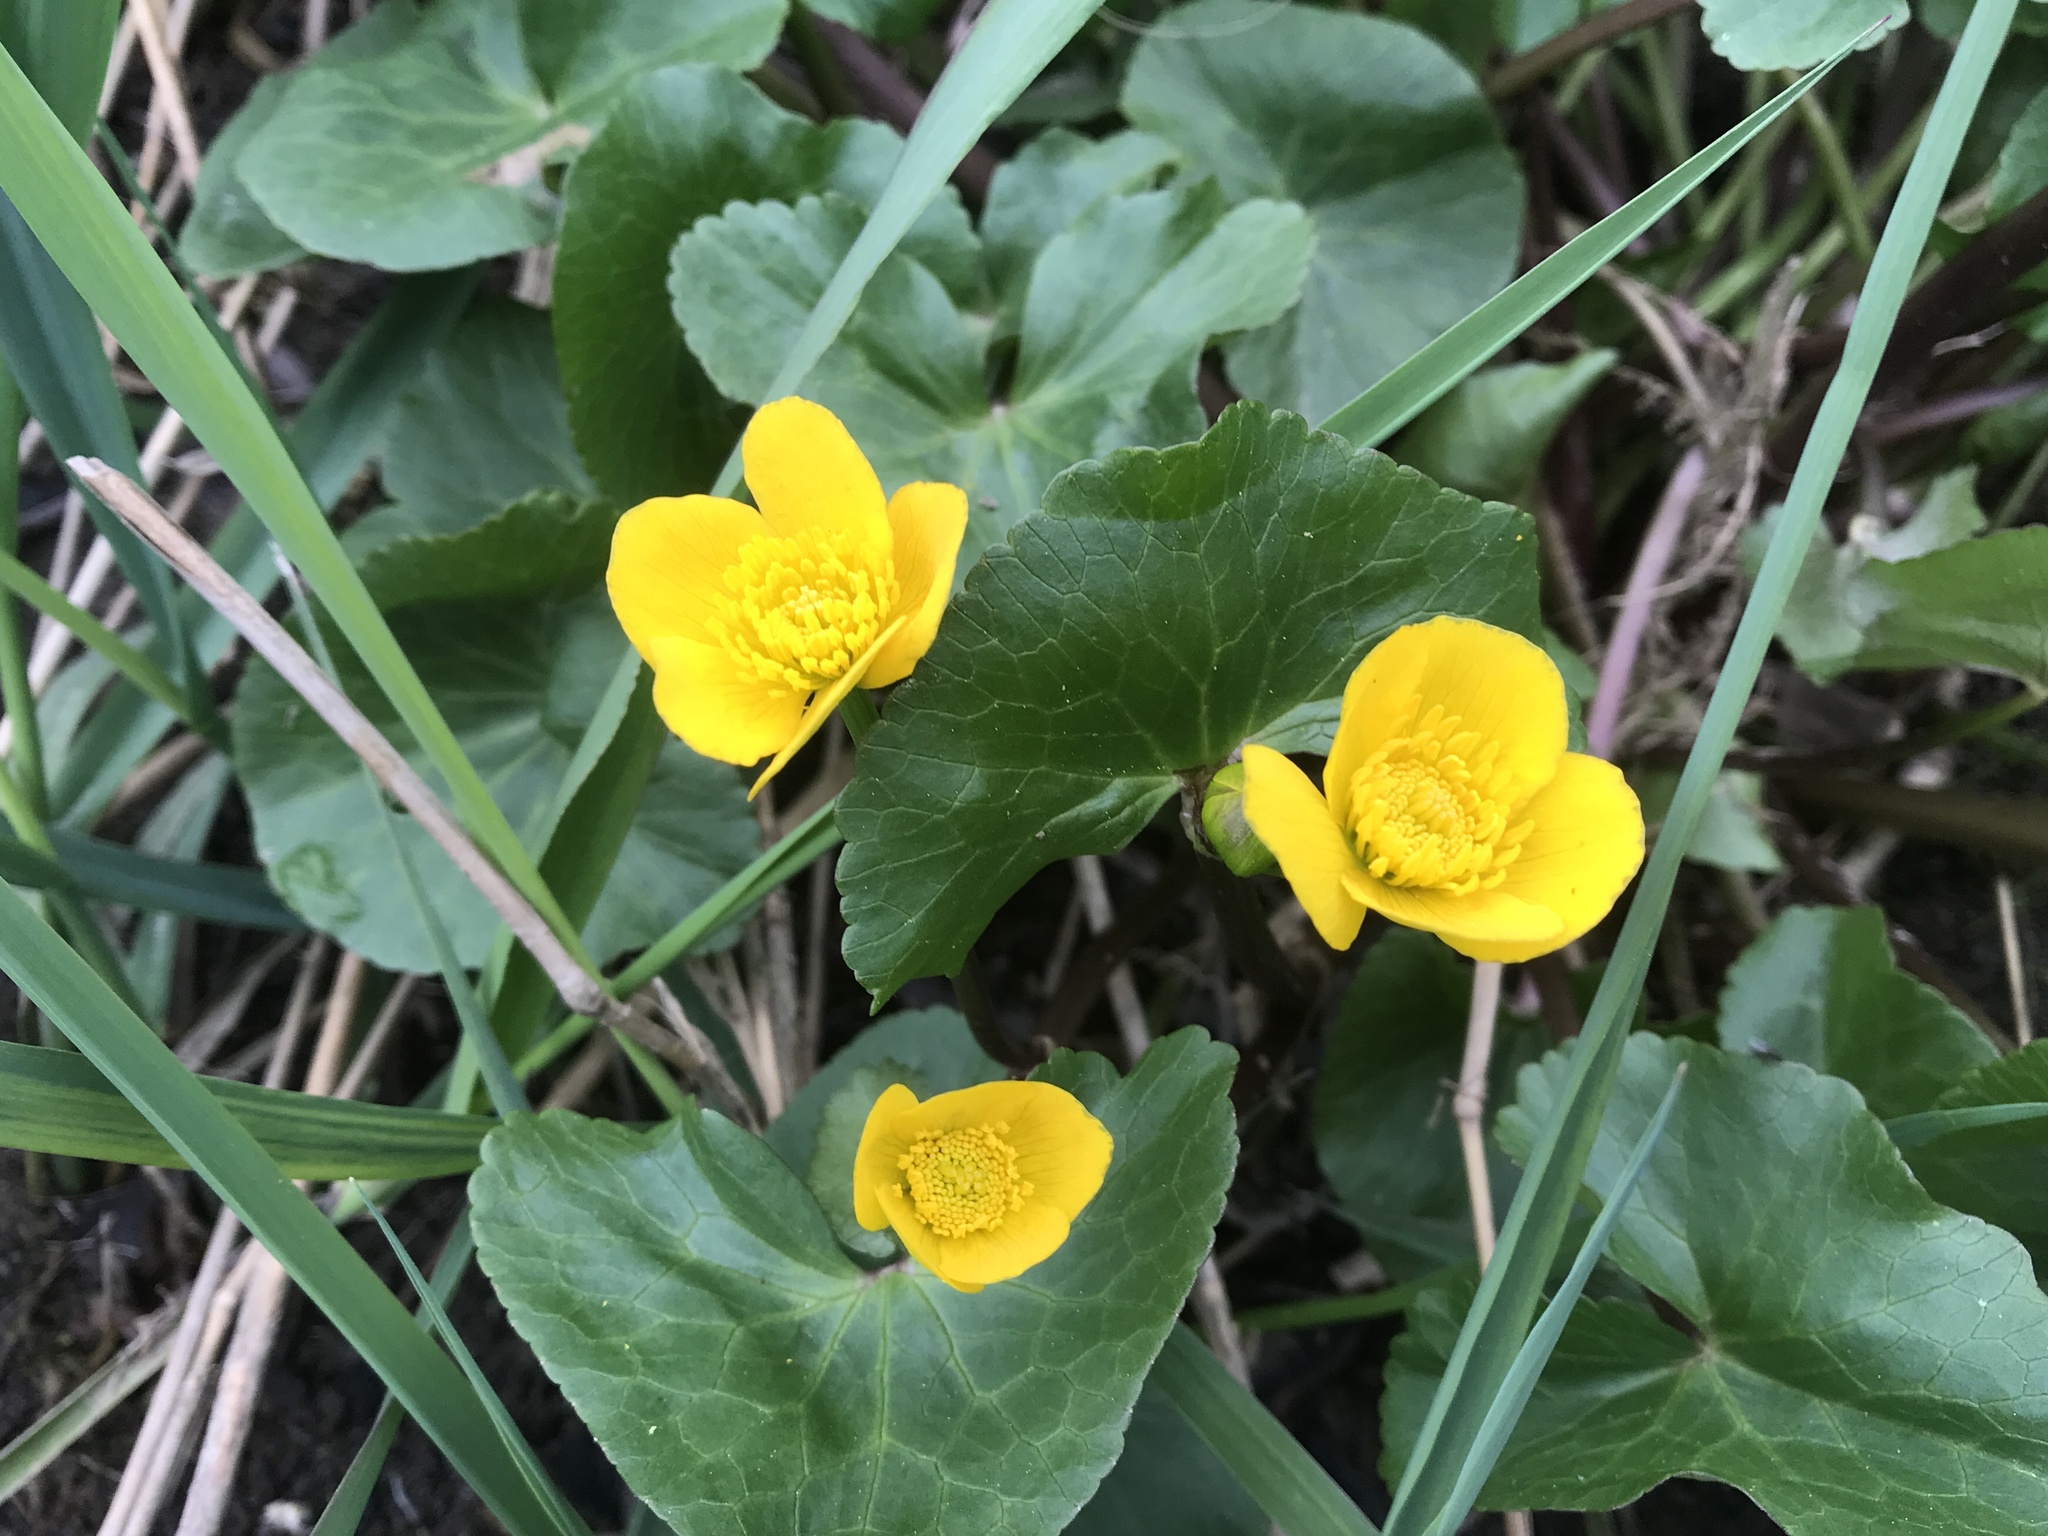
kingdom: Plantae
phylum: Tracheophyta
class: Magnoliopsida
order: Ranunculales
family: Ranunculaceae
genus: Caltha
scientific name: Caltha palustris
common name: Marsh marigold
